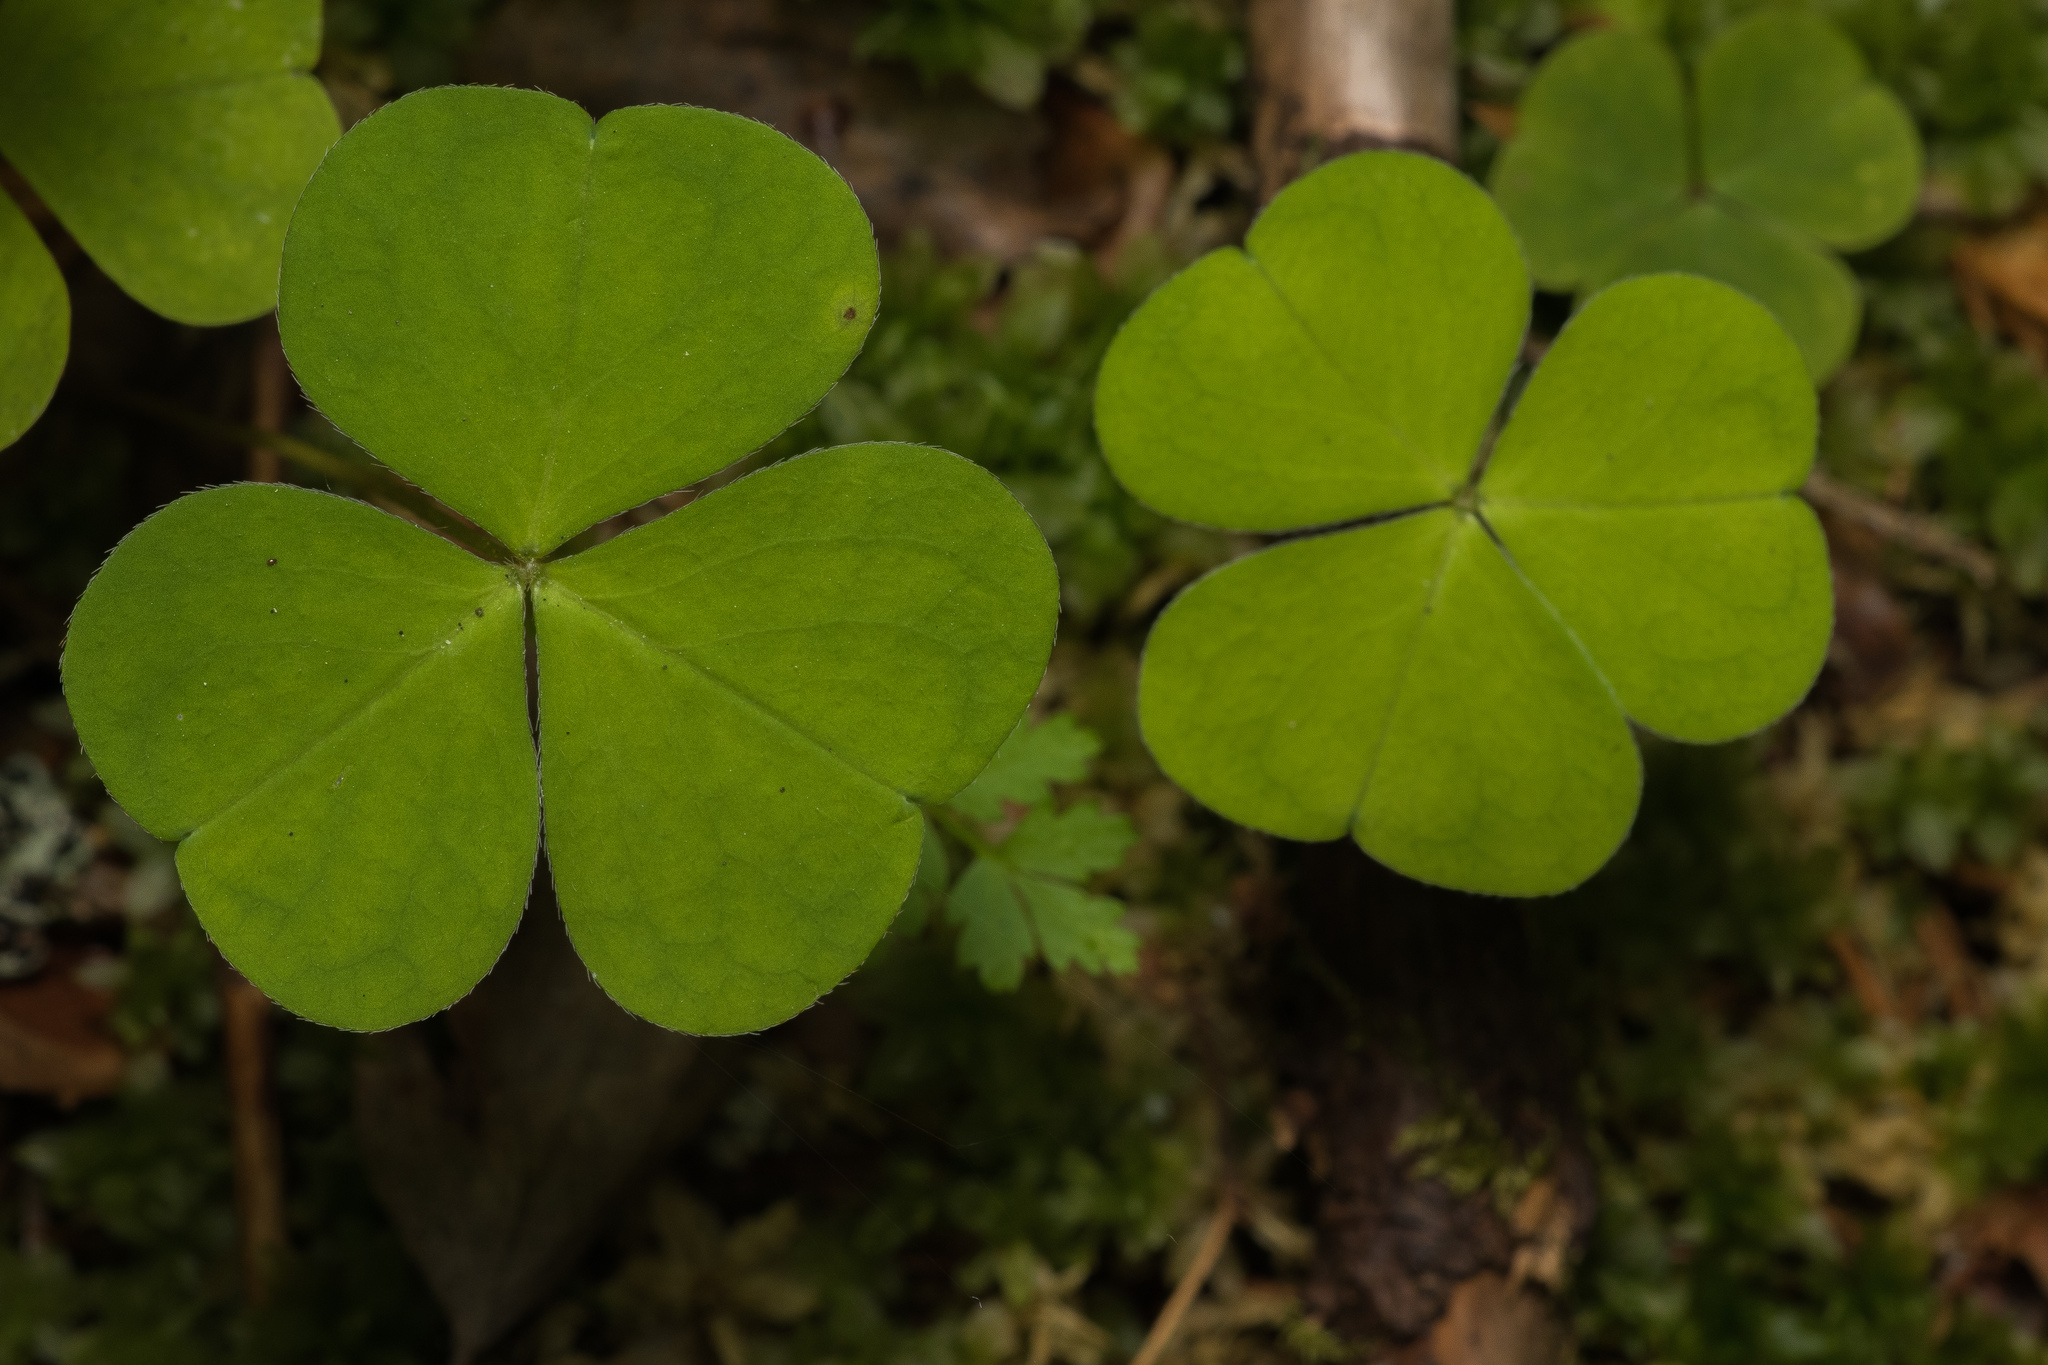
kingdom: Plantae
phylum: Tracheophyta
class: Magnoliopsida
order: Oxalidales
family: Oxalidaceae
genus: Oxalis
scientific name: Oxalis acetosella
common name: Wood-sorrel
